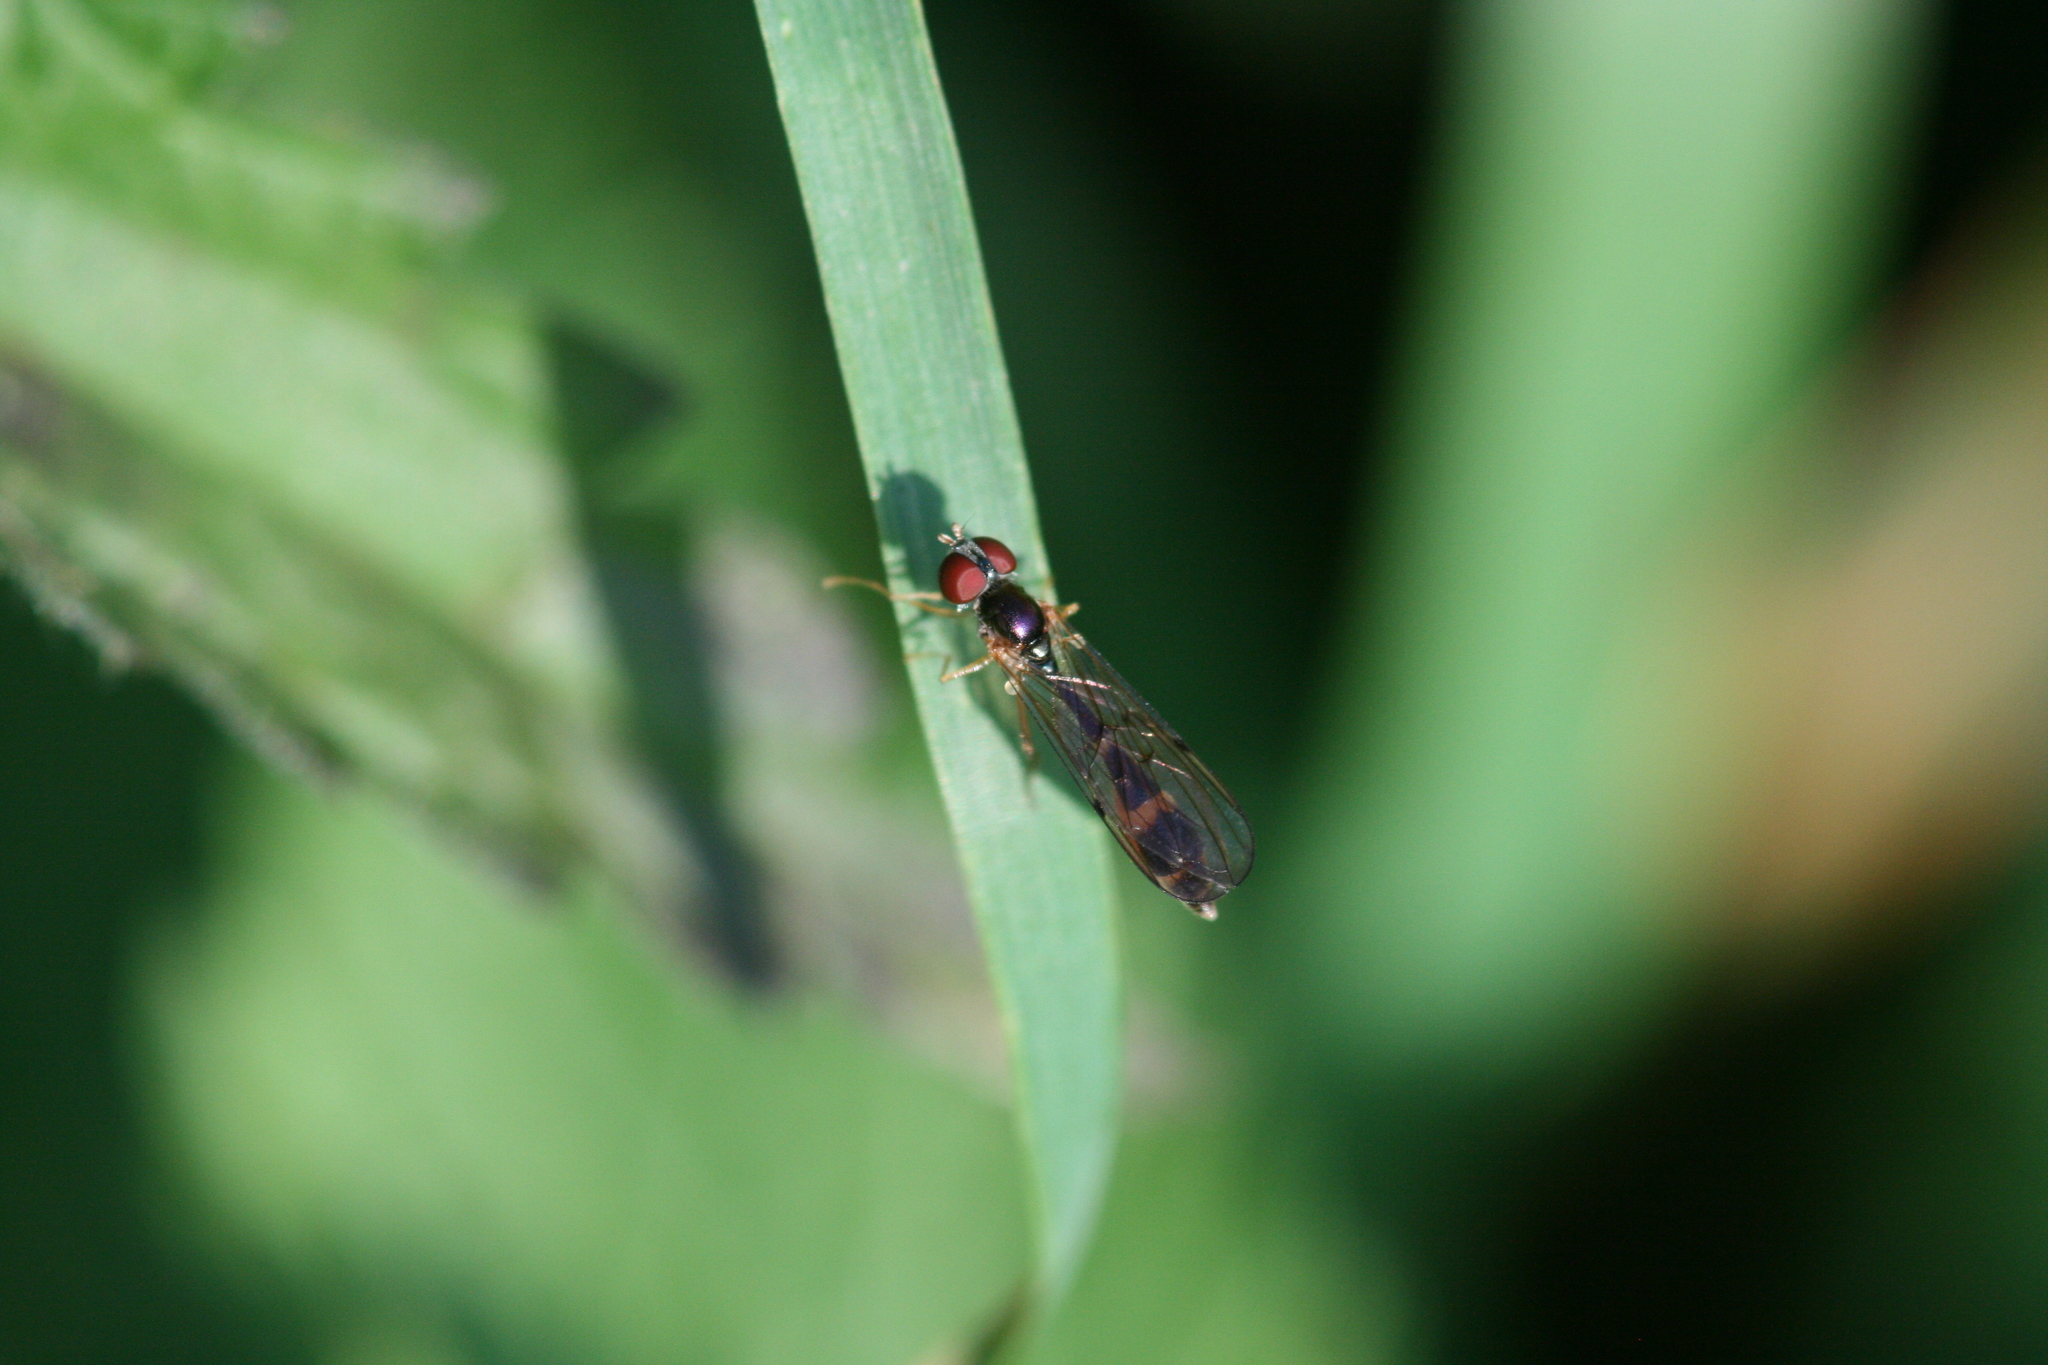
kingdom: Animalia
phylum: Arthropoda
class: Insecta
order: Diptera
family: Syrphidae
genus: Baccha
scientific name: Baccha elongata
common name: Common dainty
